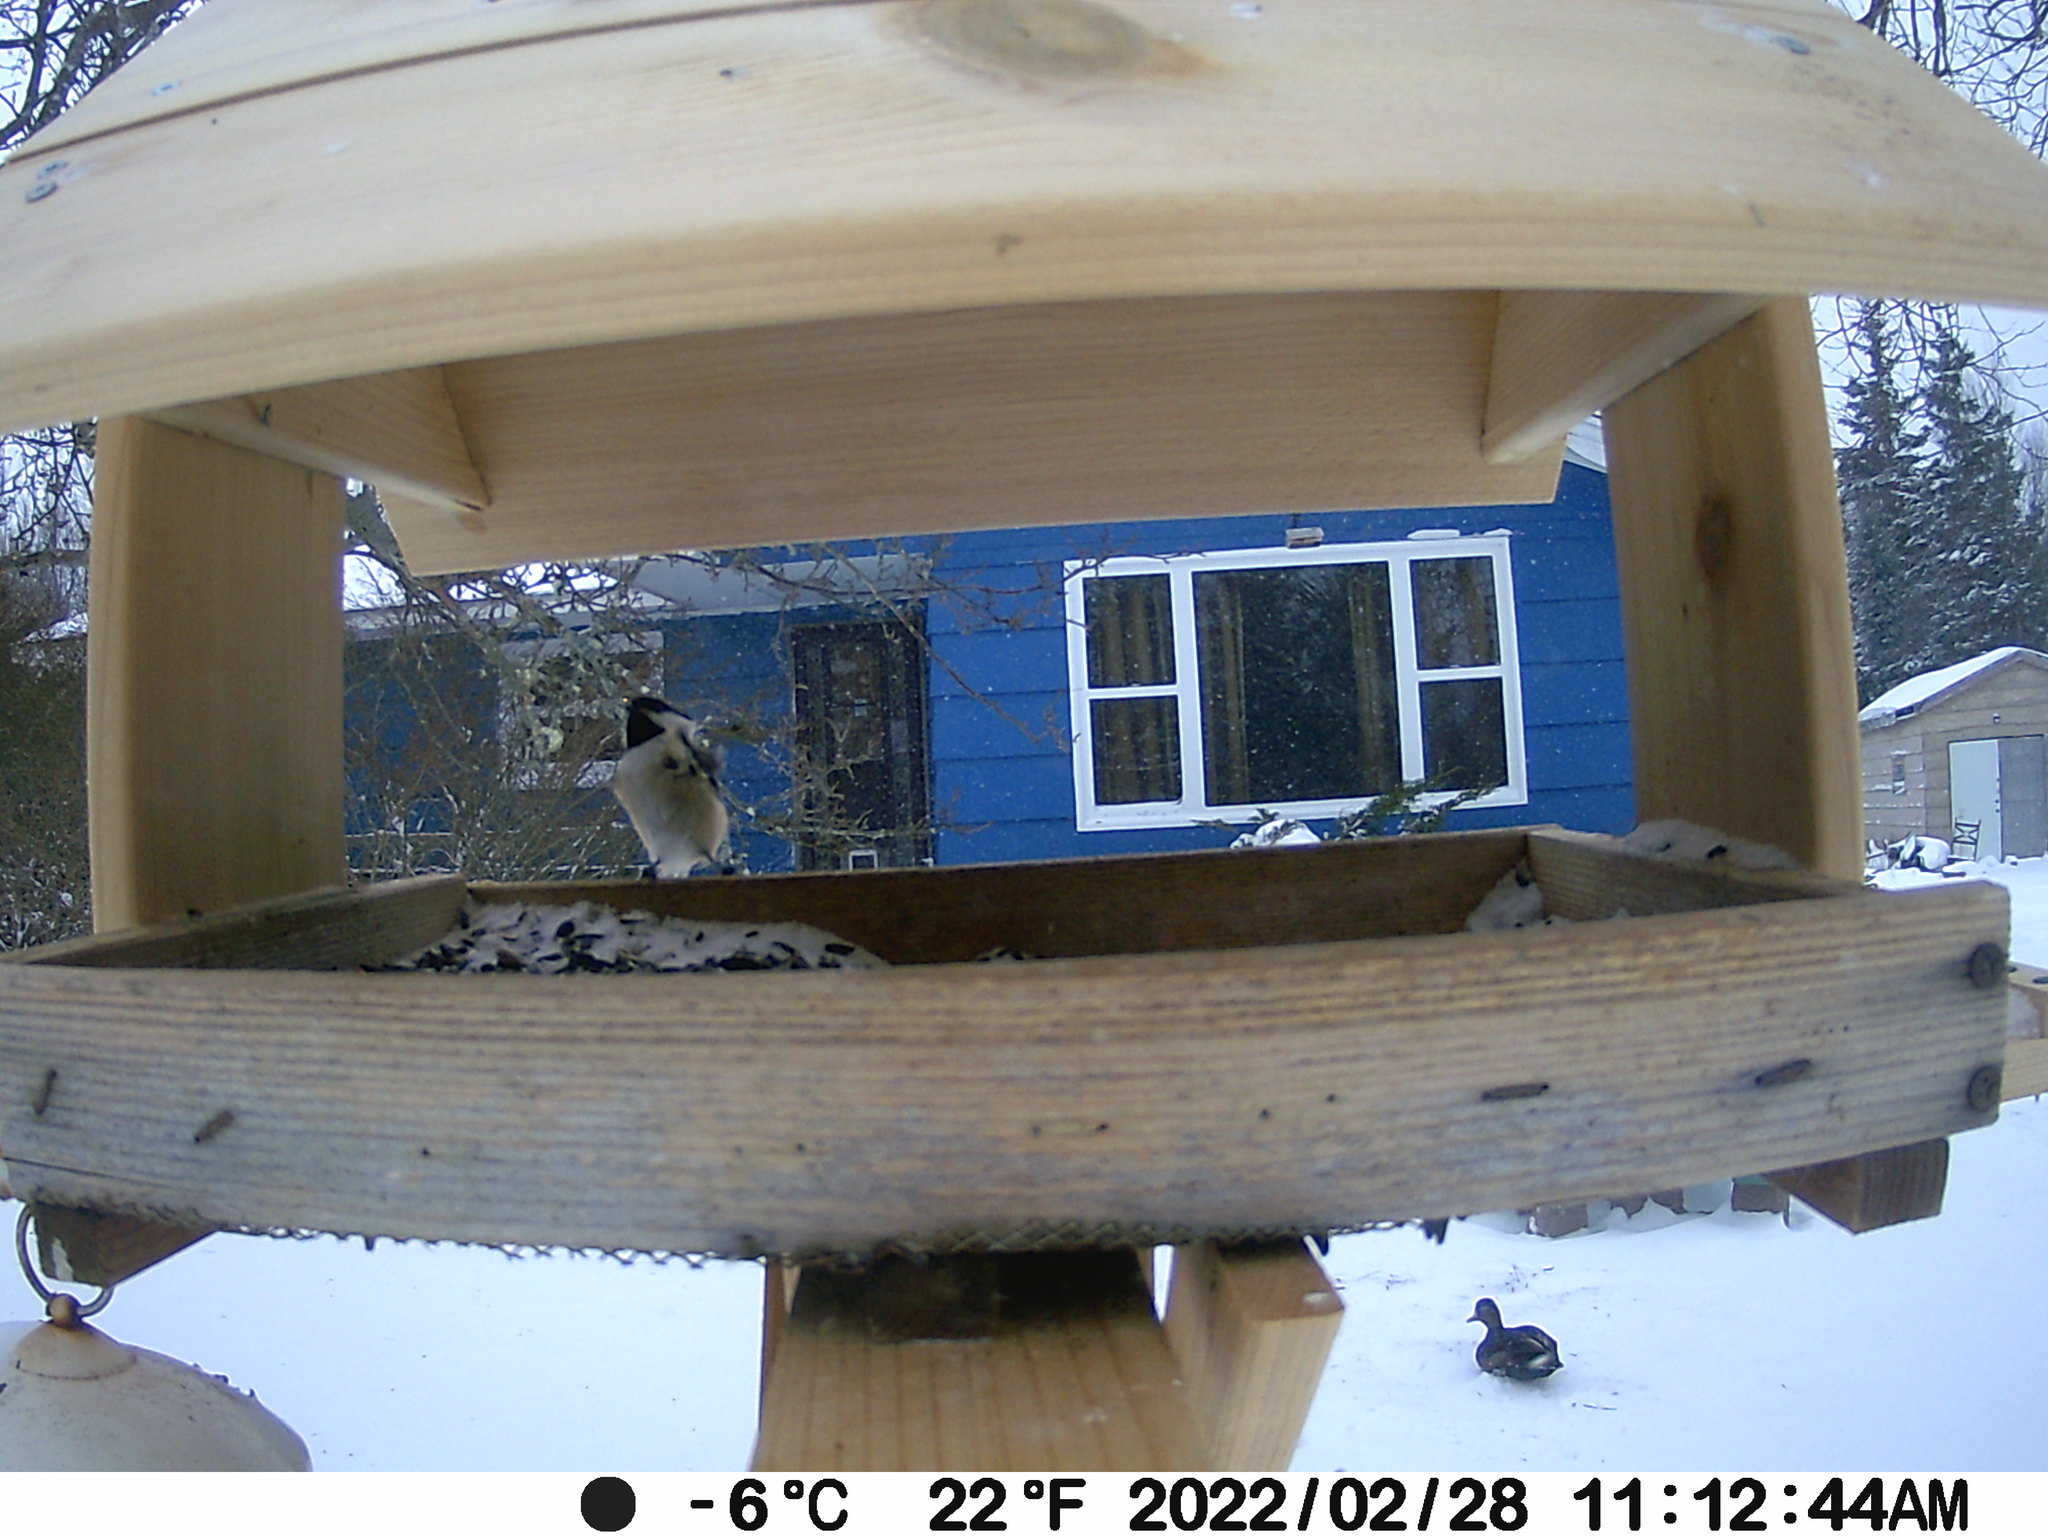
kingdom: Animalia
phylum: Chordata
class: Aves
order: Anseriformes
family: Anatidae
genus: Anas
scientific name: Anas rubripes
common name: American black duck
